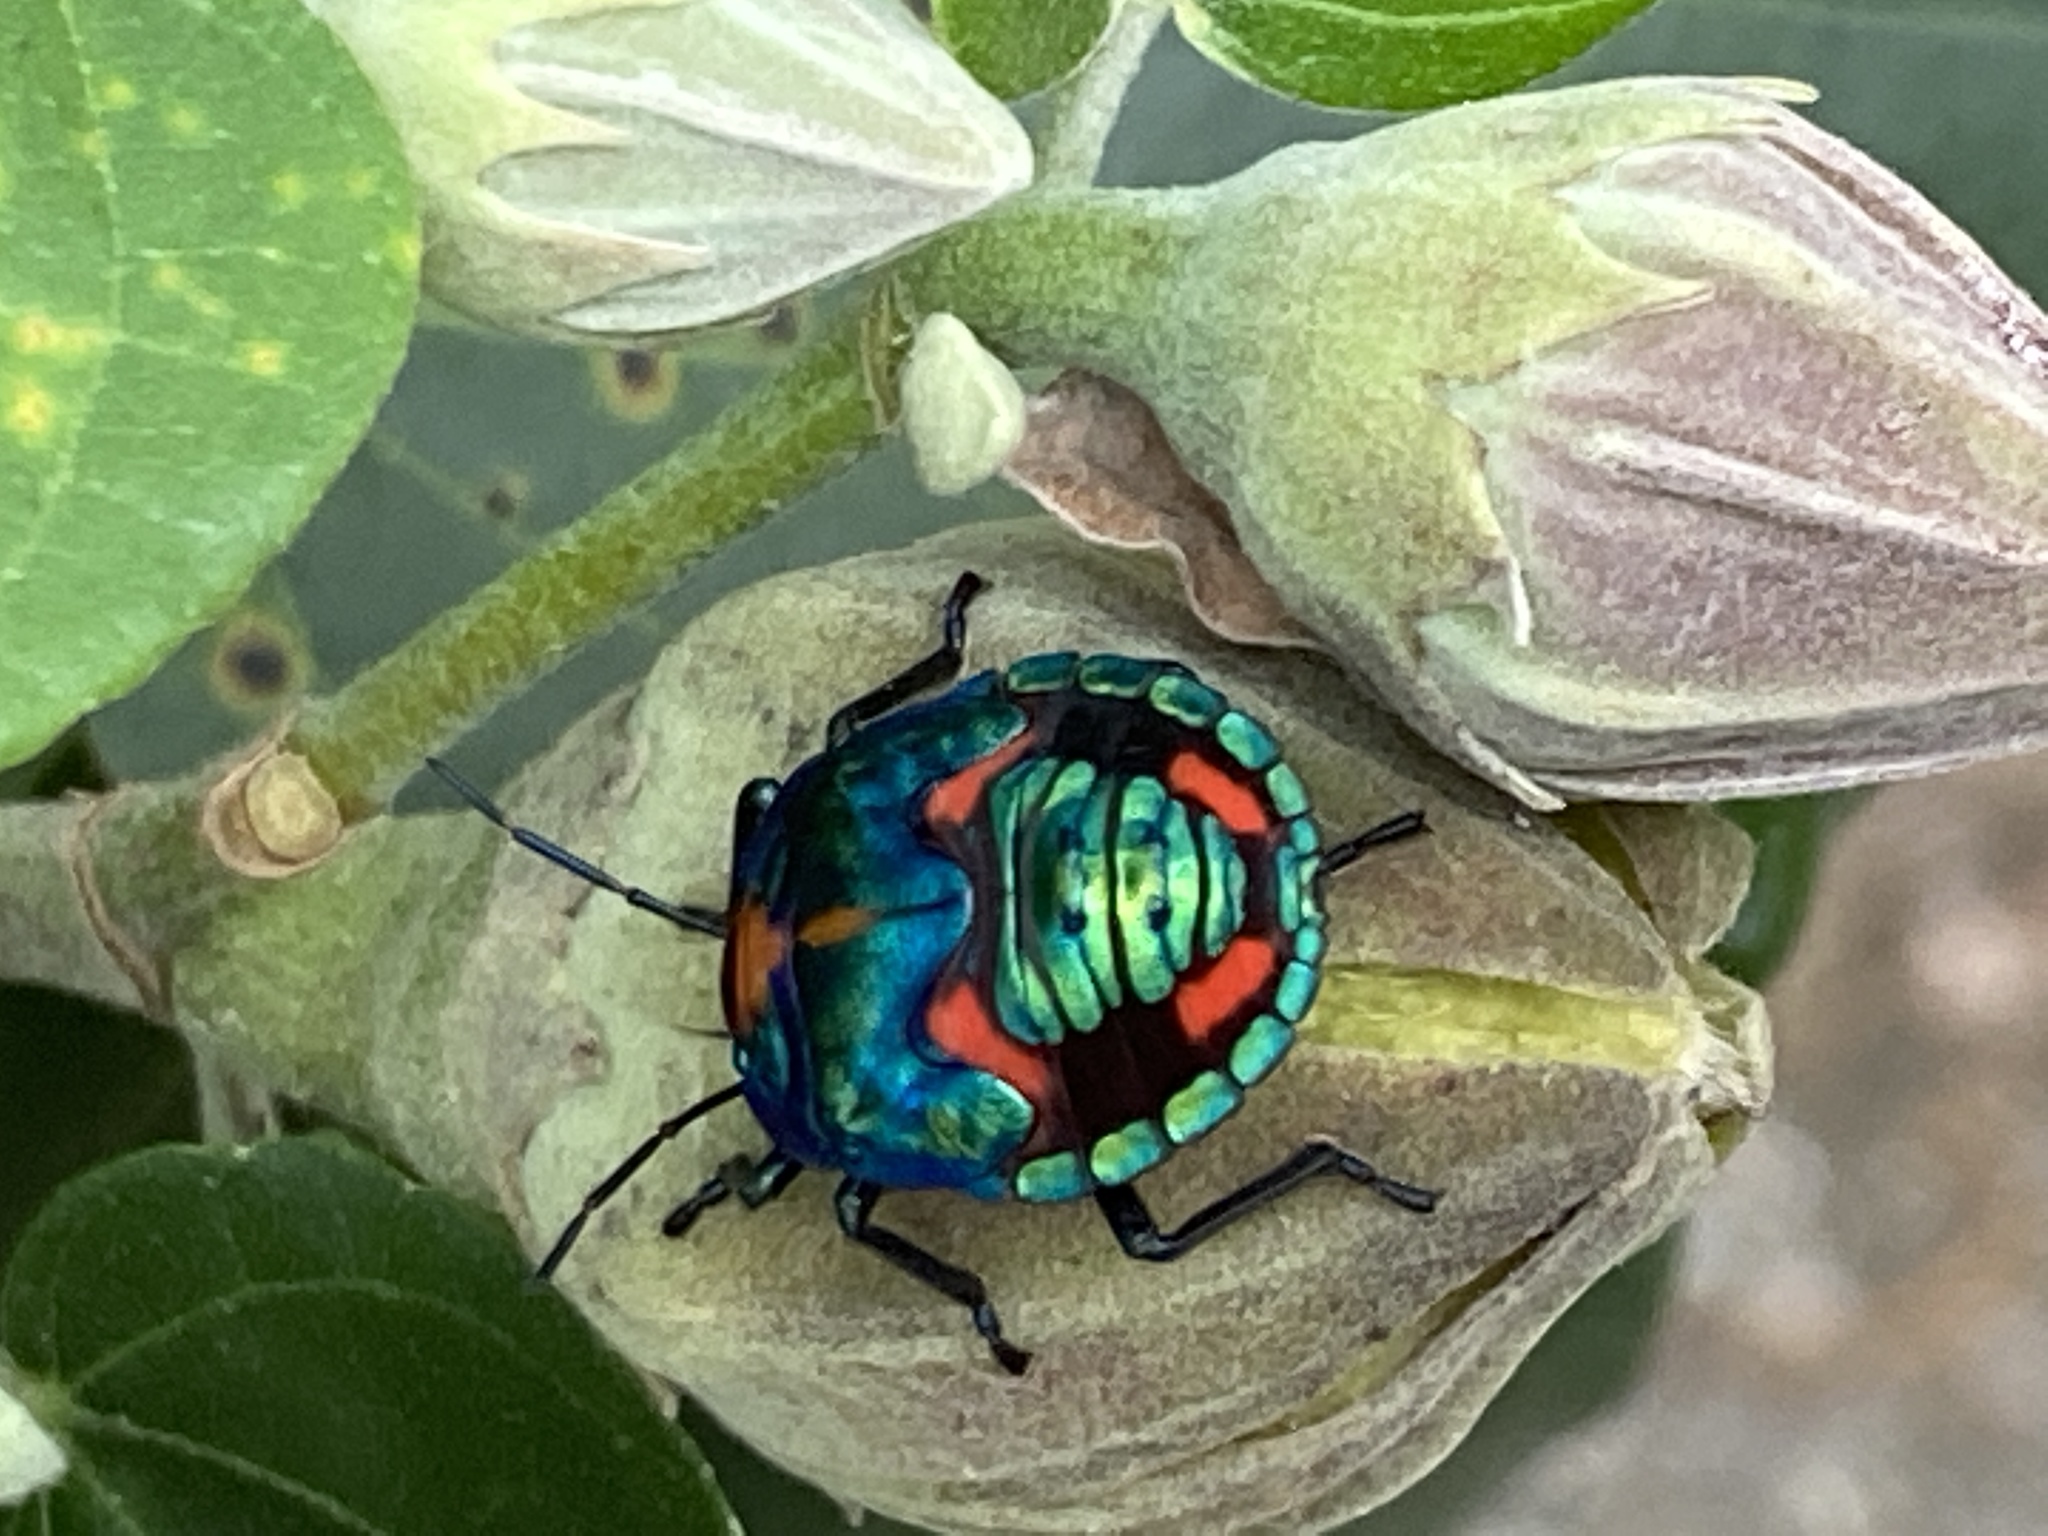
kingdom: Animalia
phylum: Arthropoda
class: Insecta
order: Hemiptera
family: Scutelleridae
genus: Tectocoris
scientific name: Tectocoris diophthalmus
